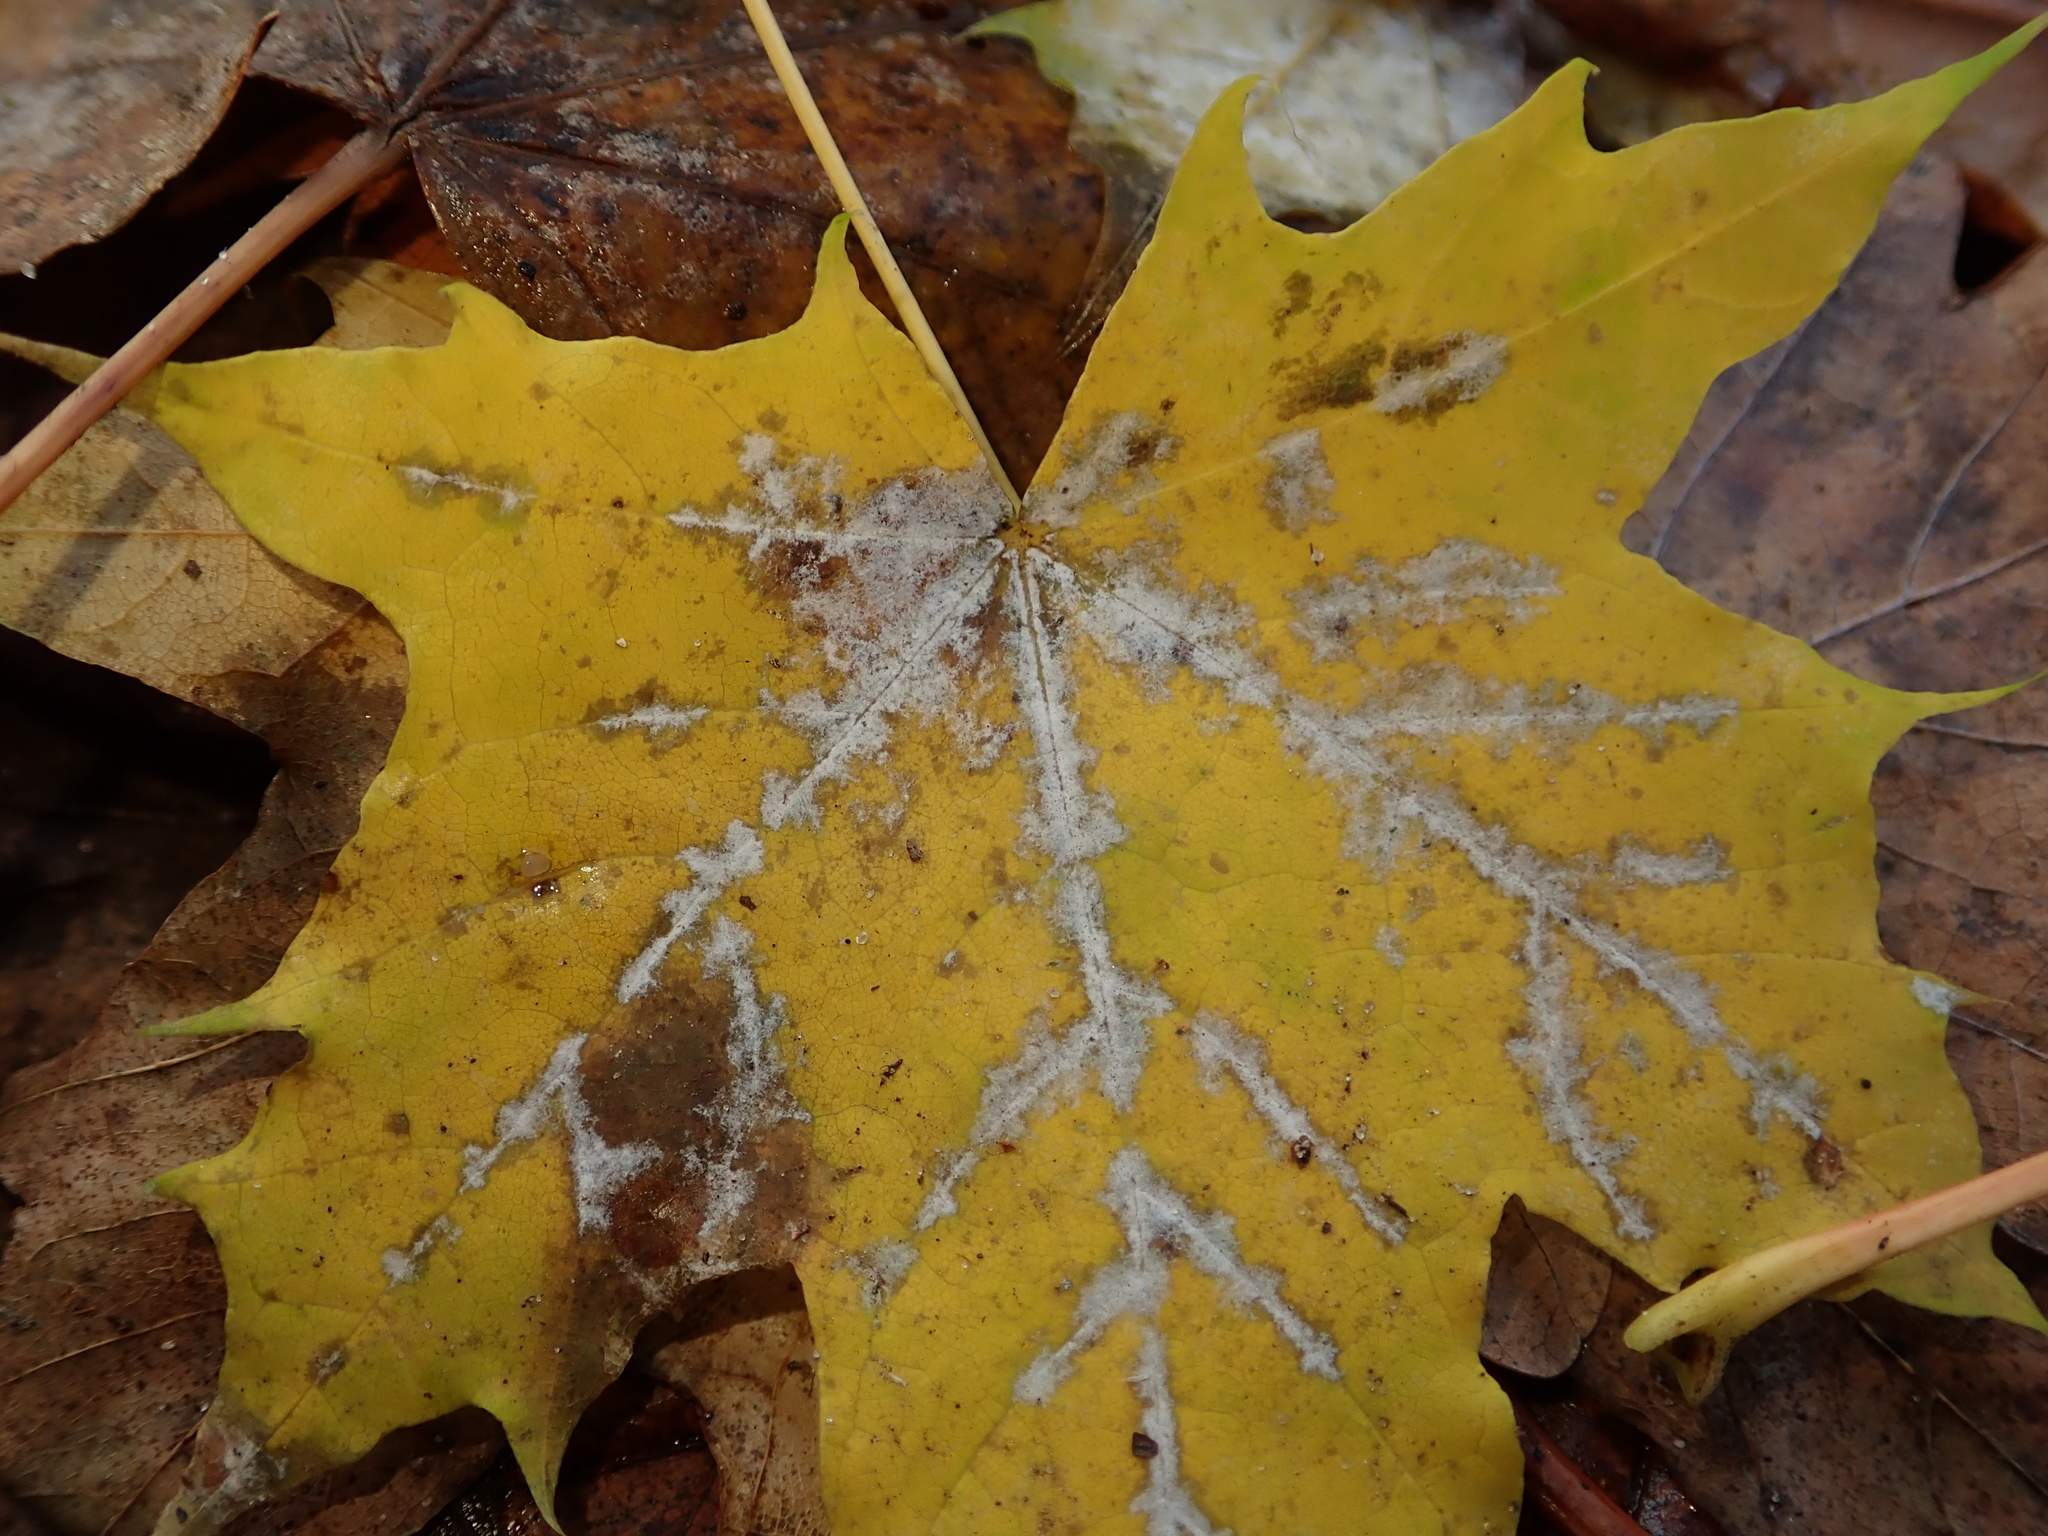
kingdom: Fungi
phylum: Ascomycota
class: Leotiomycetes
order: Helotiales
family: Erysiphaceae
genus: Sawadaea
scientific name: Sawadaea tulasnei
